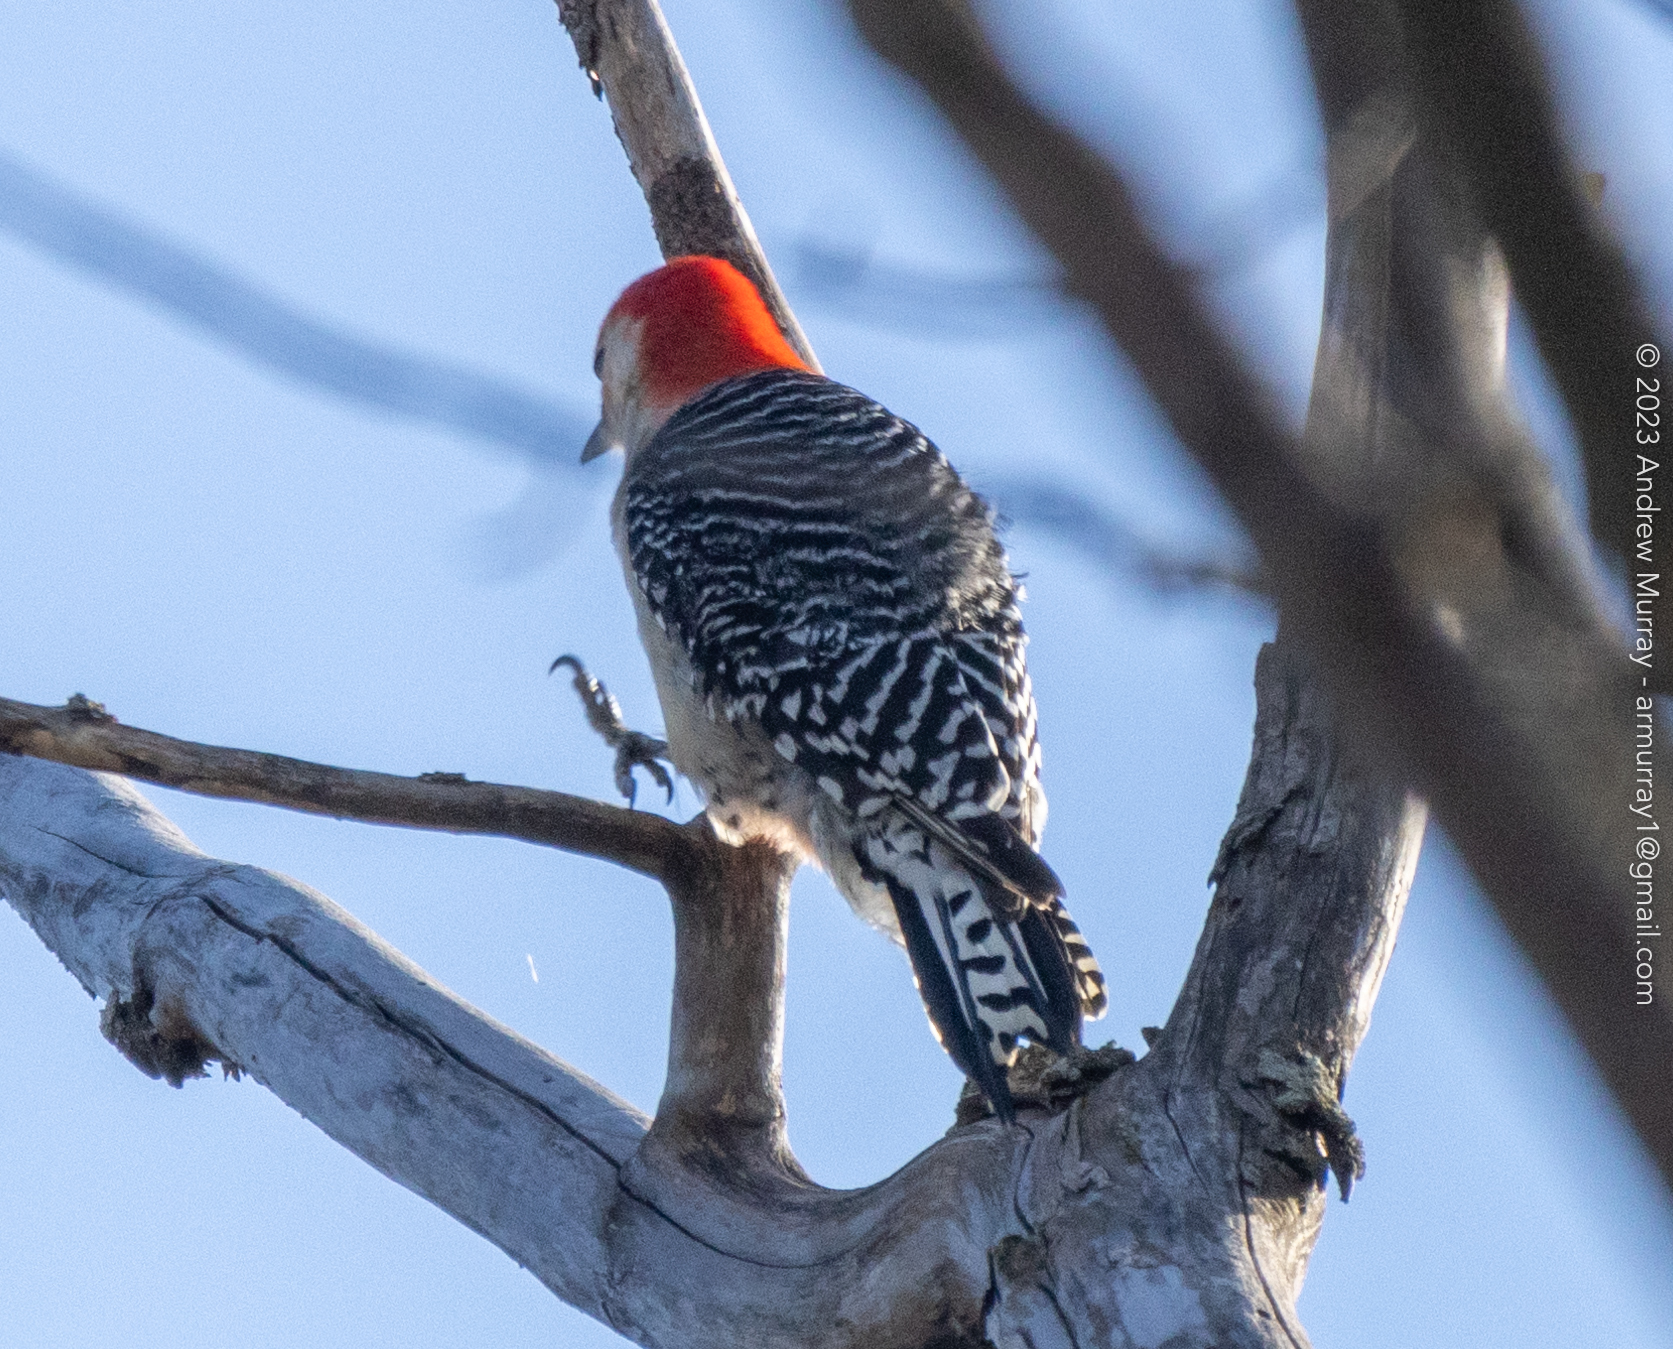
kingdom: Animalia
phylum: Chordata
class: Aves
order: Piciformes
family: Picidae
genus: Melanerpes
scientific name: Melanerpes carolinus
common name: Red-bellied woodpecker
